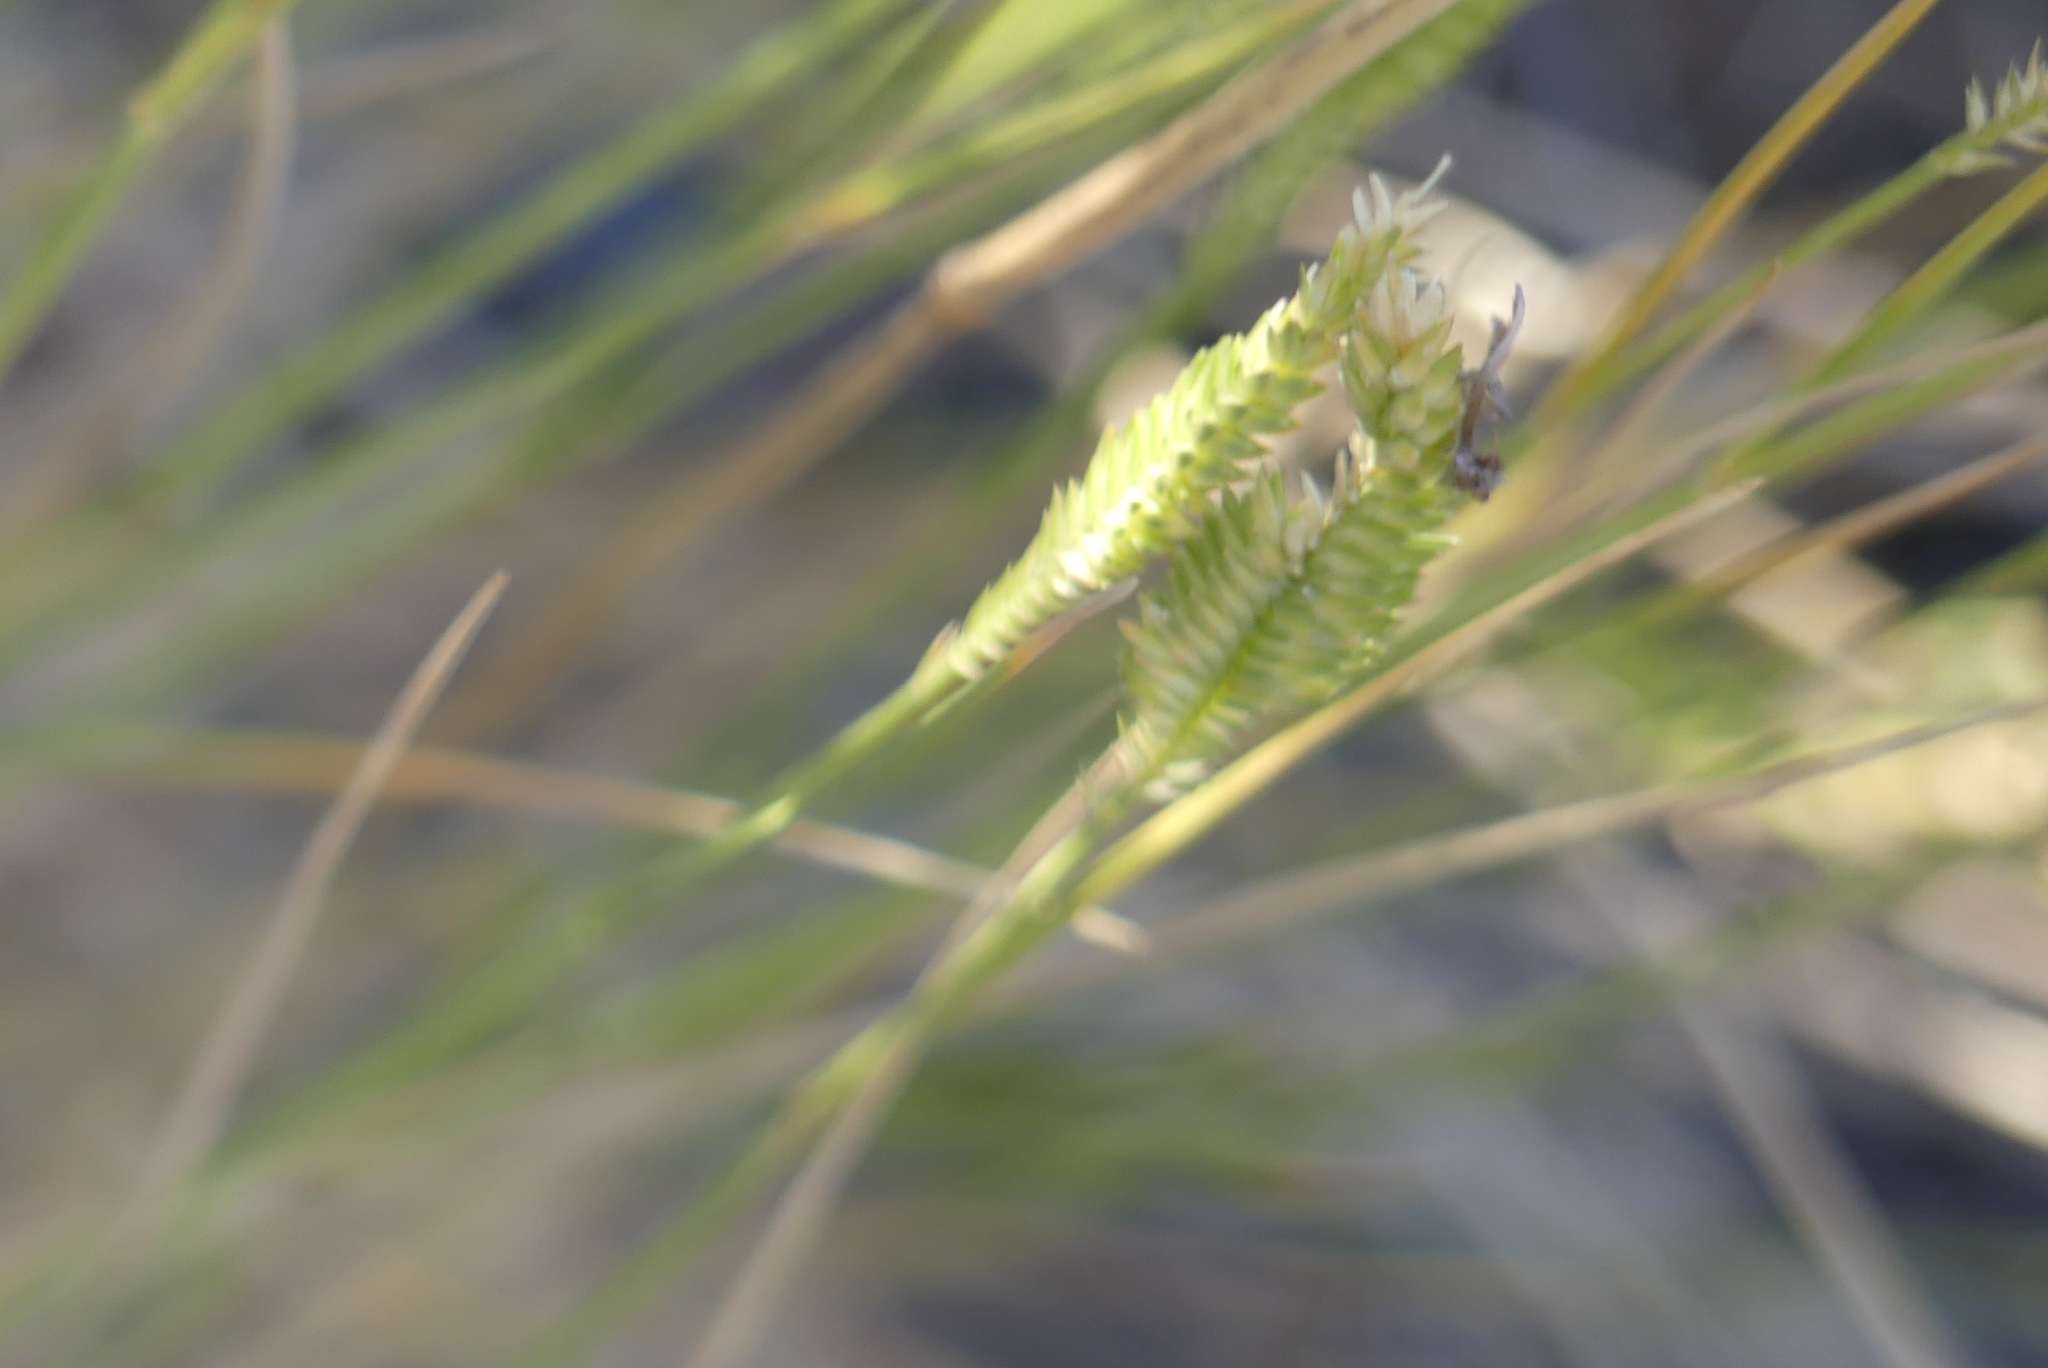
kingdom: Plantae
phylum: Tracheophyta
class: Liliopsida
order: Poales
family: Poaceae
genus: Agropyron
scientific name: Agropyron cristatum
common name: Crested wheatgrass
